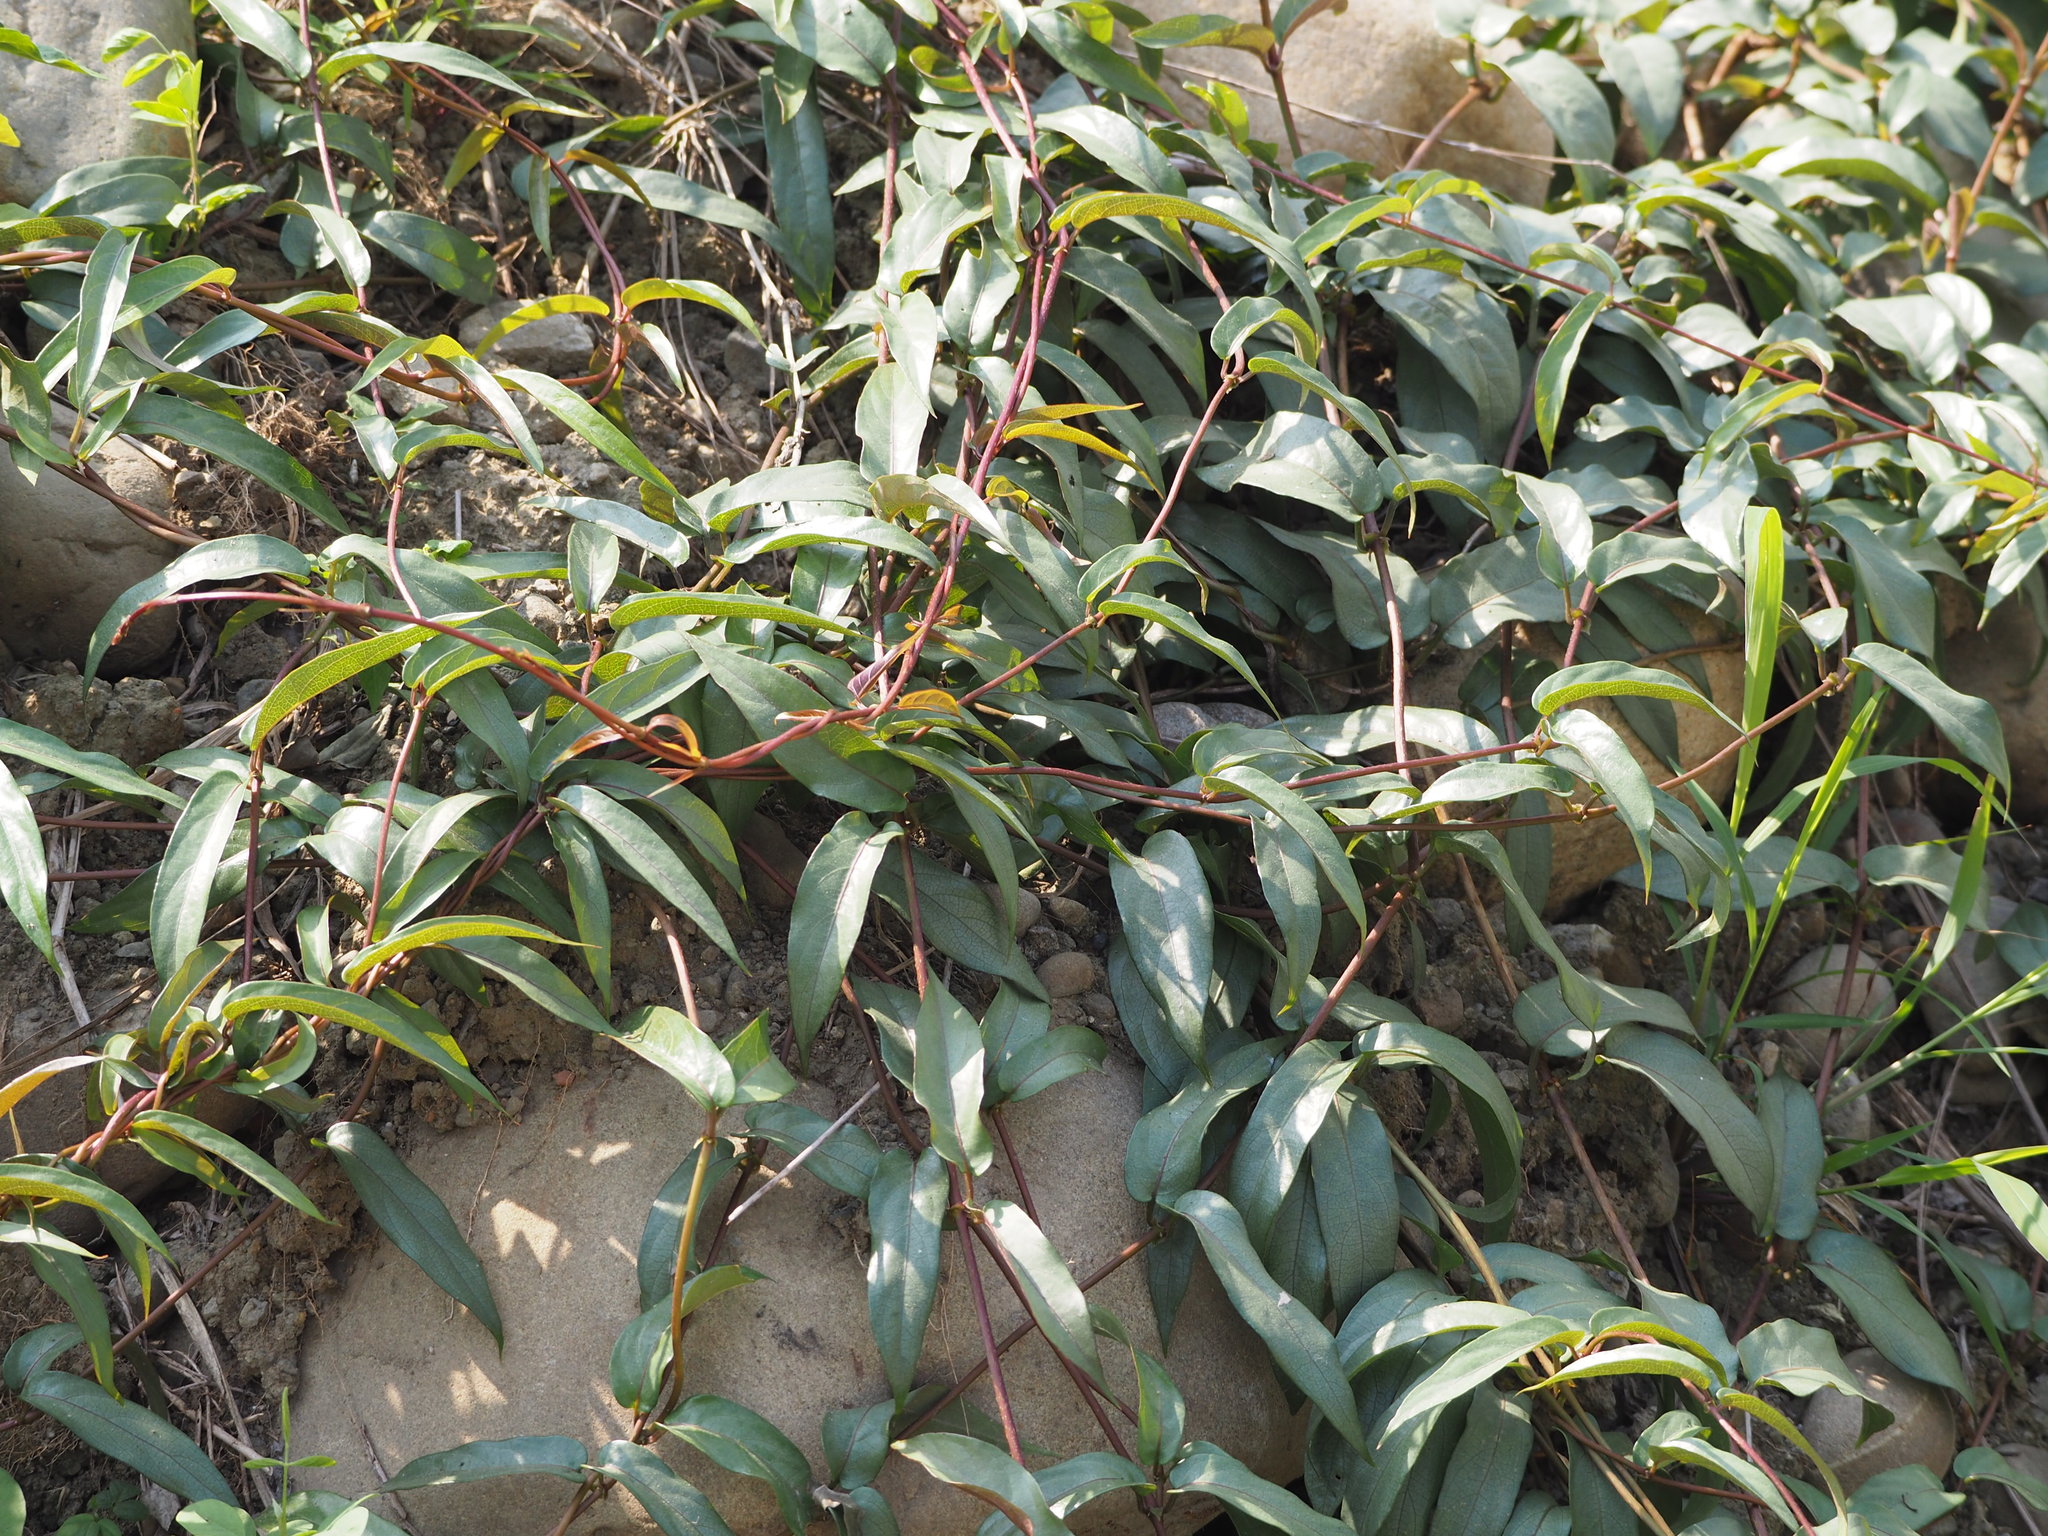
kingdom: Plantae
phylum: Tracheophyta
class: Magnoliopsida
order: Gentianales
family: Rubiaceae
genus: Paederia
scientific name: Paederia foetida
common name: Stinkvine
